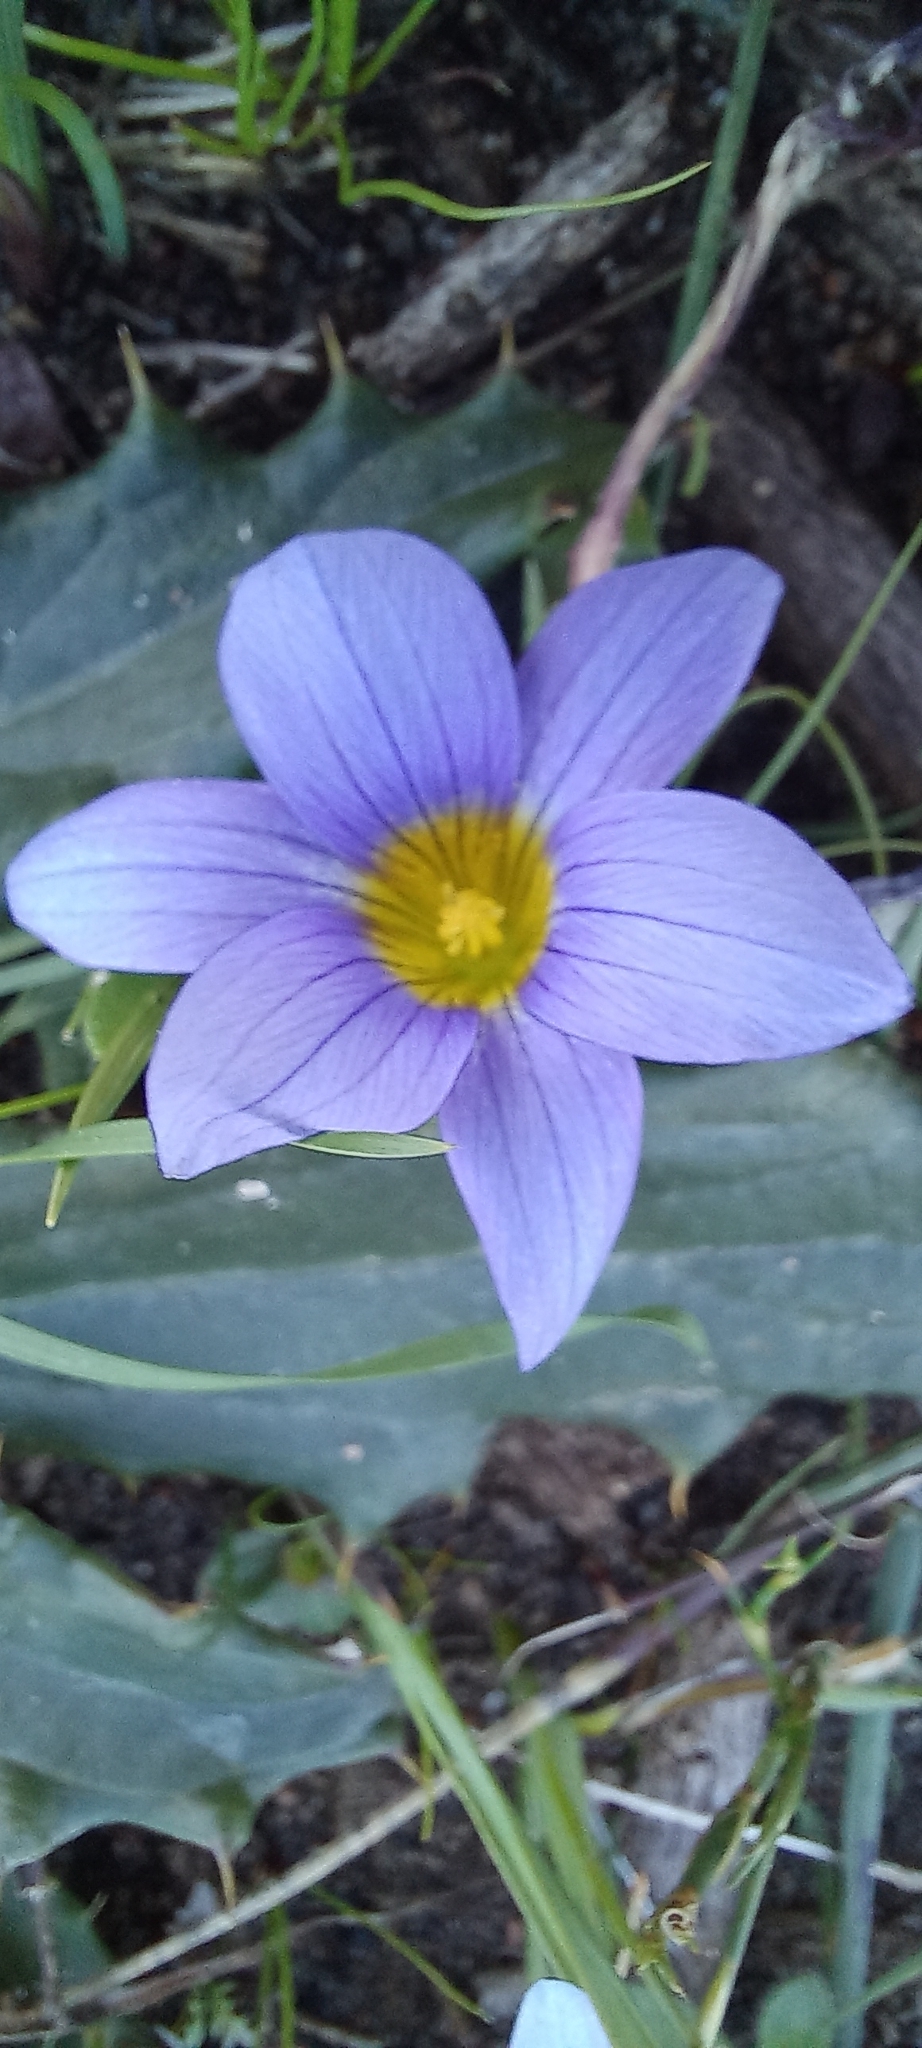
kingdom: Plantae
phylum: Tracheophyta
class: Liliopsida
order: Asparagales
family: Iridaceae
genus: Romulea
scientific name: Romulea tabularis
